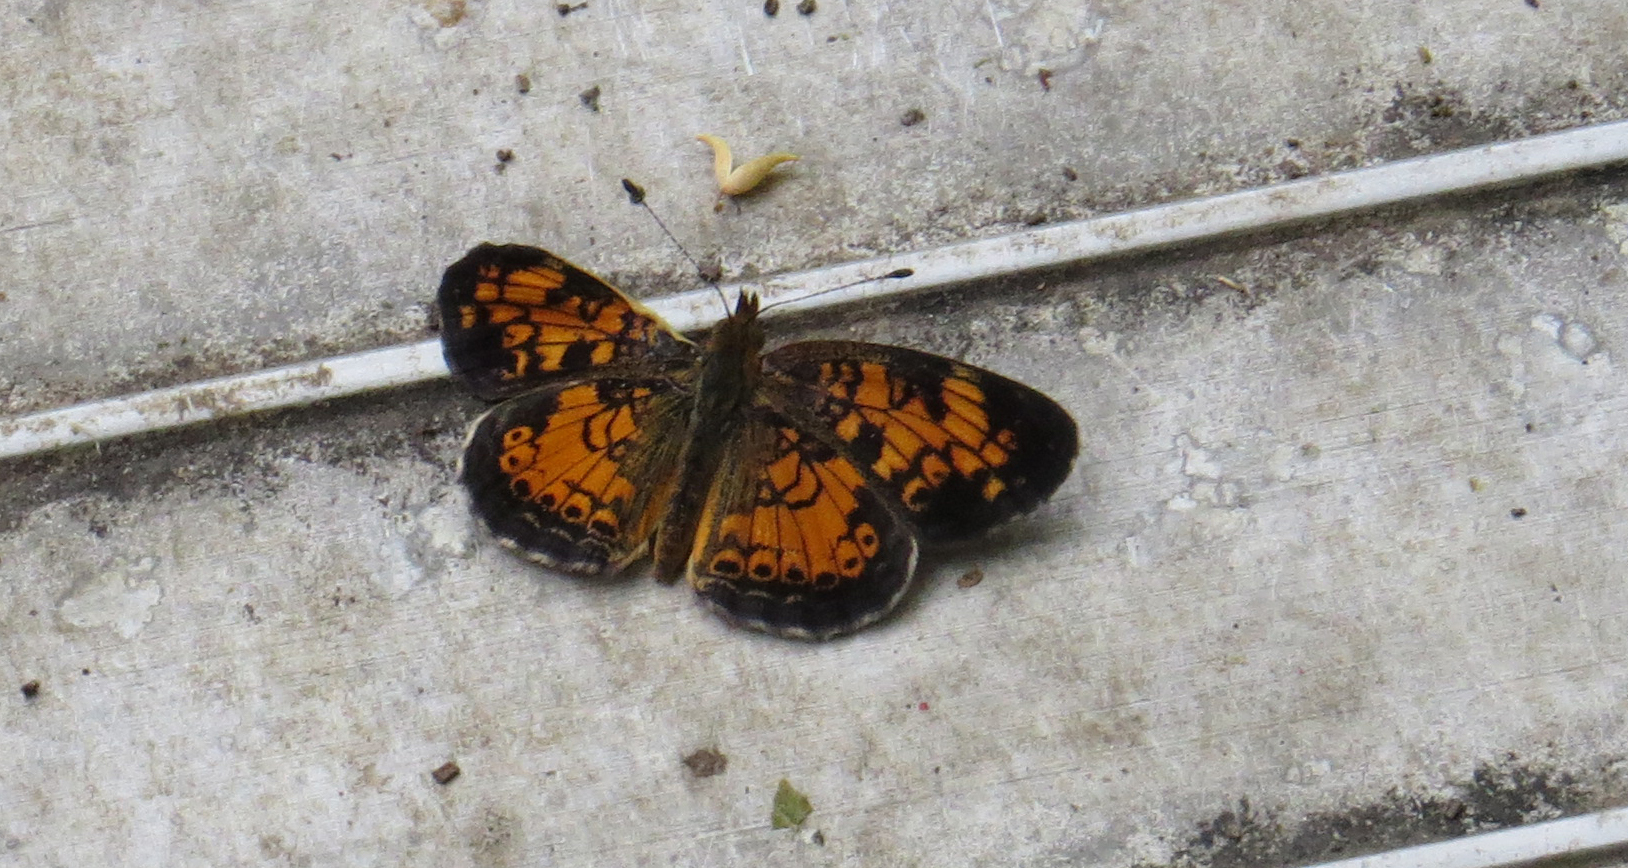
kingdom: Animalia
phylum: Arthropoda
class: Insecta
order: Lepidoptera
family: Nymphalidae
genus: Phyciodes
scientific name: Phyciodes tharos
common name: Pearl crescent
